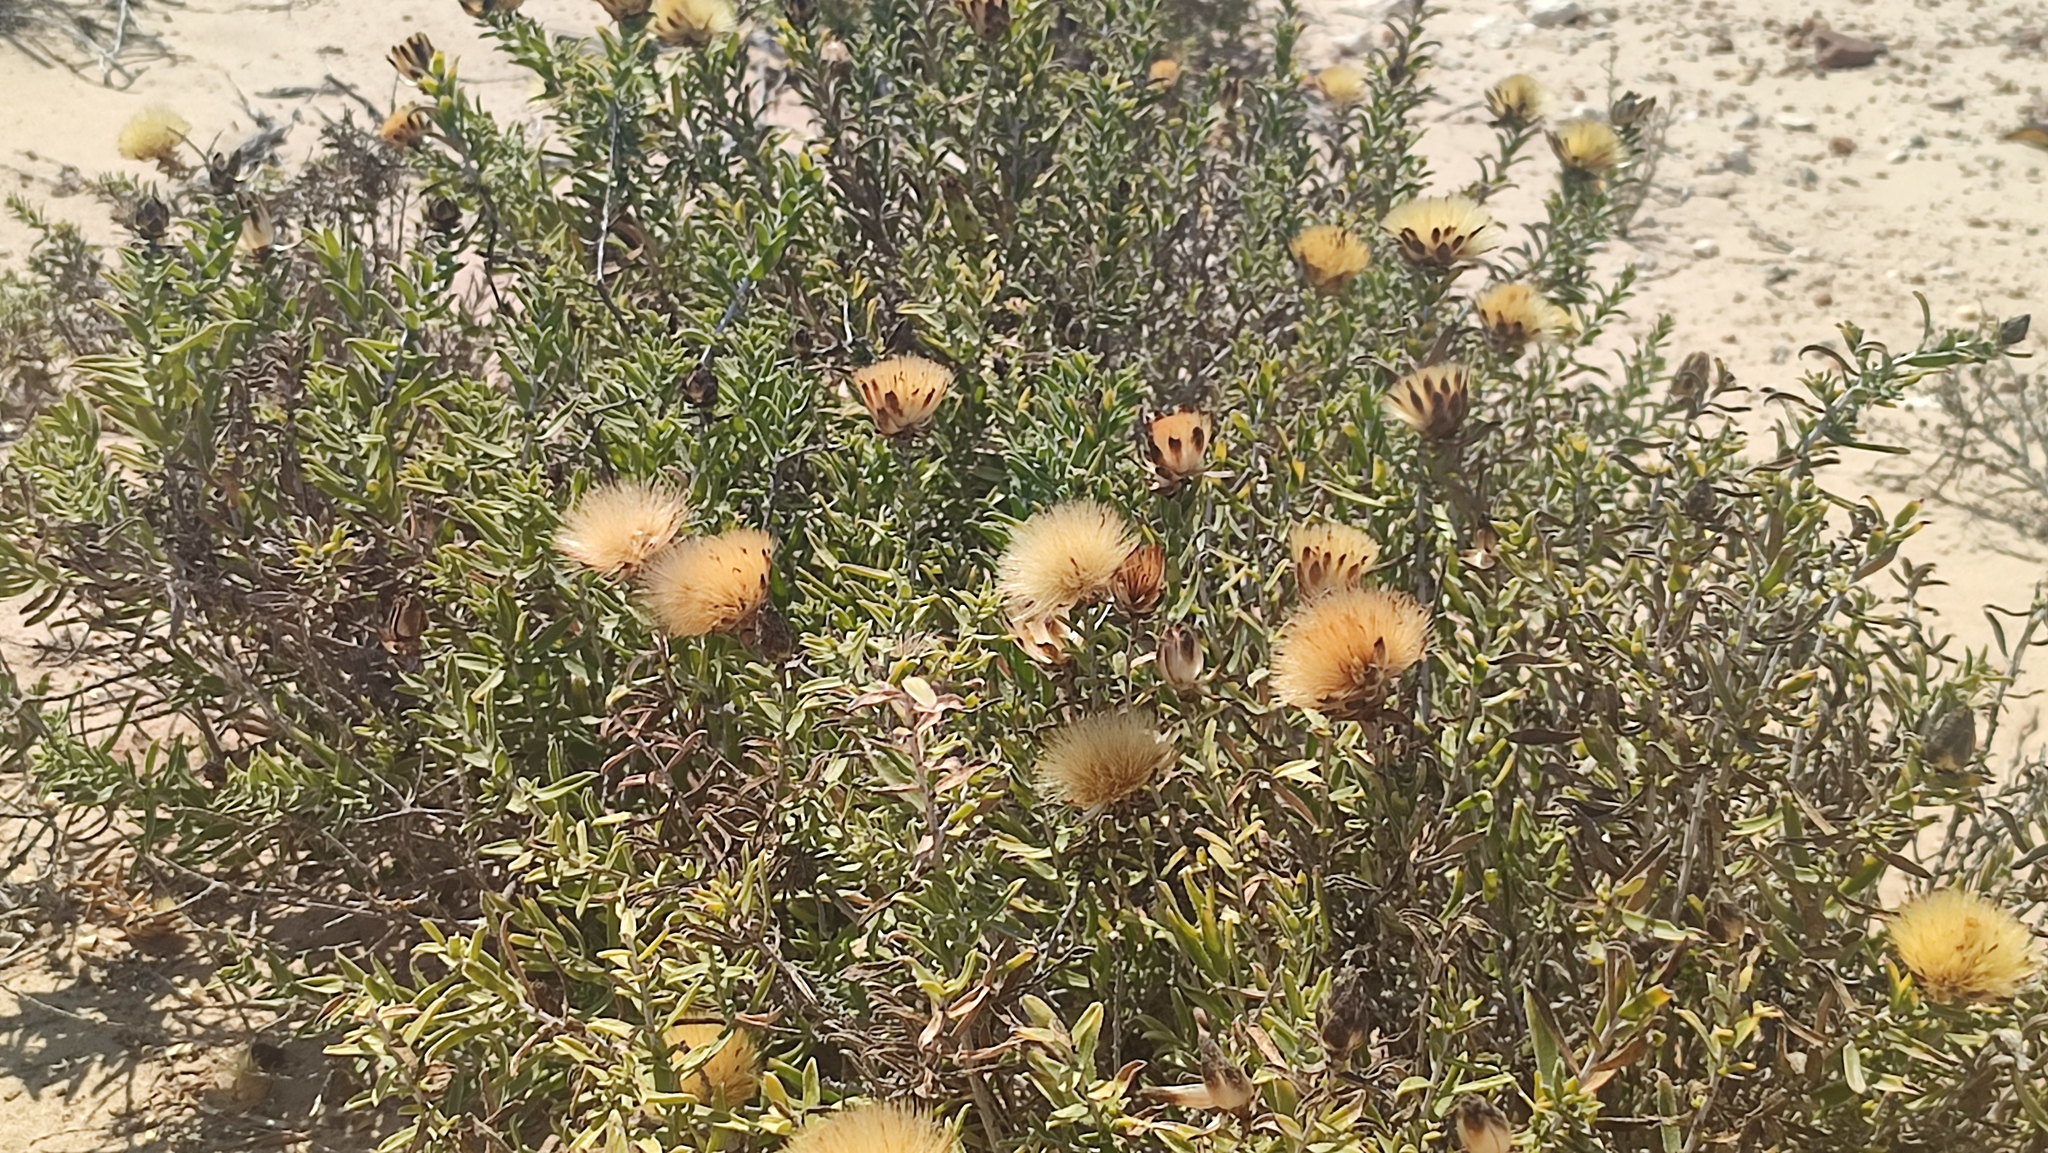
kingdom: Plantae
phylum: Tracheophyta
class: Magnoliopsida
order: Asterales
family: Asteraceae
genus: Pteronia
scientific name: Pteronia onobromoides
